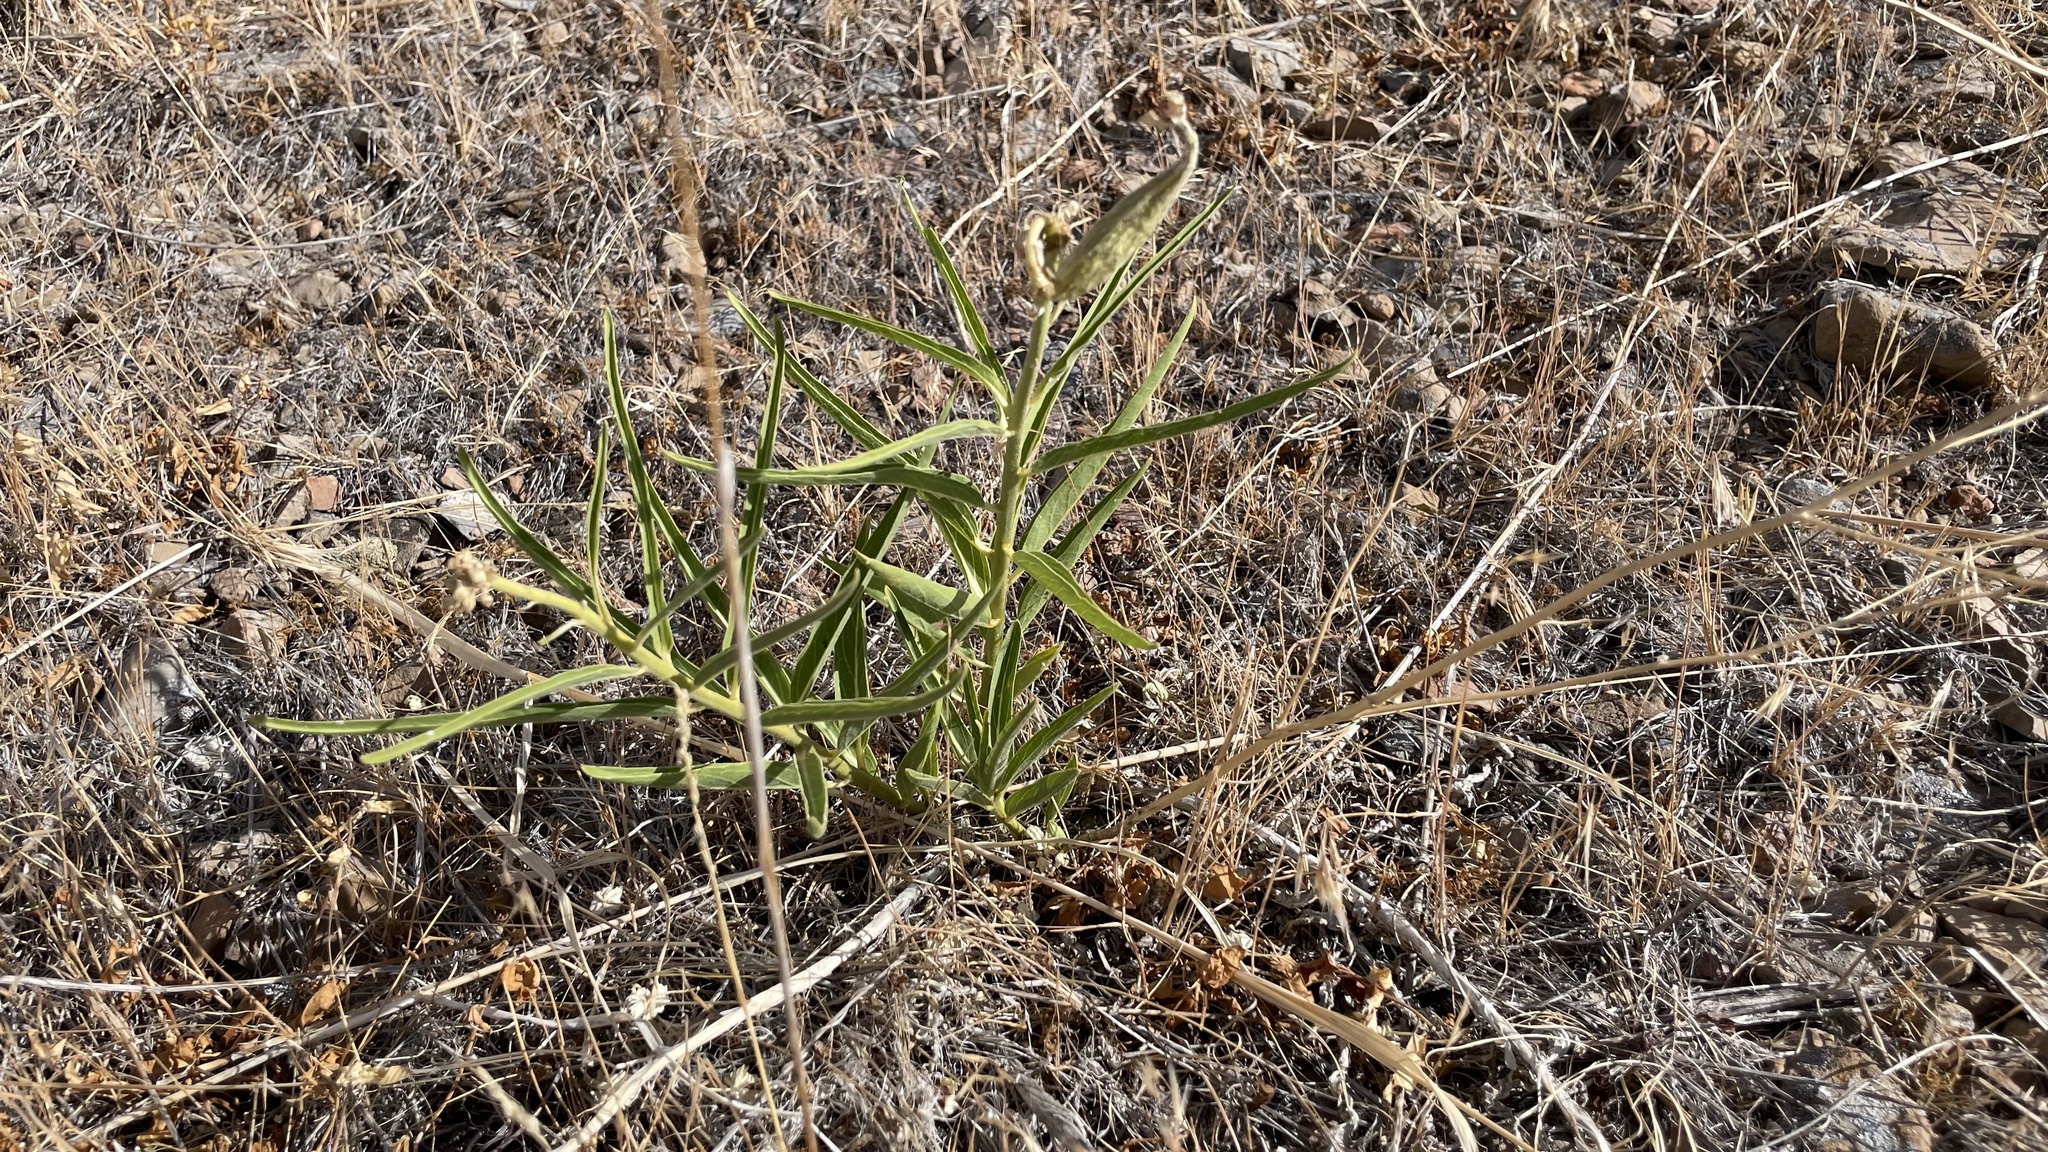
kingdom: Plantae
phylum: Tracheophyta
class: Magnoliopsida
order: Gentianales
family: Apocynaceae
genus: Asclepias
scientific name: Asclepias asperula
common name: Antelope horns
